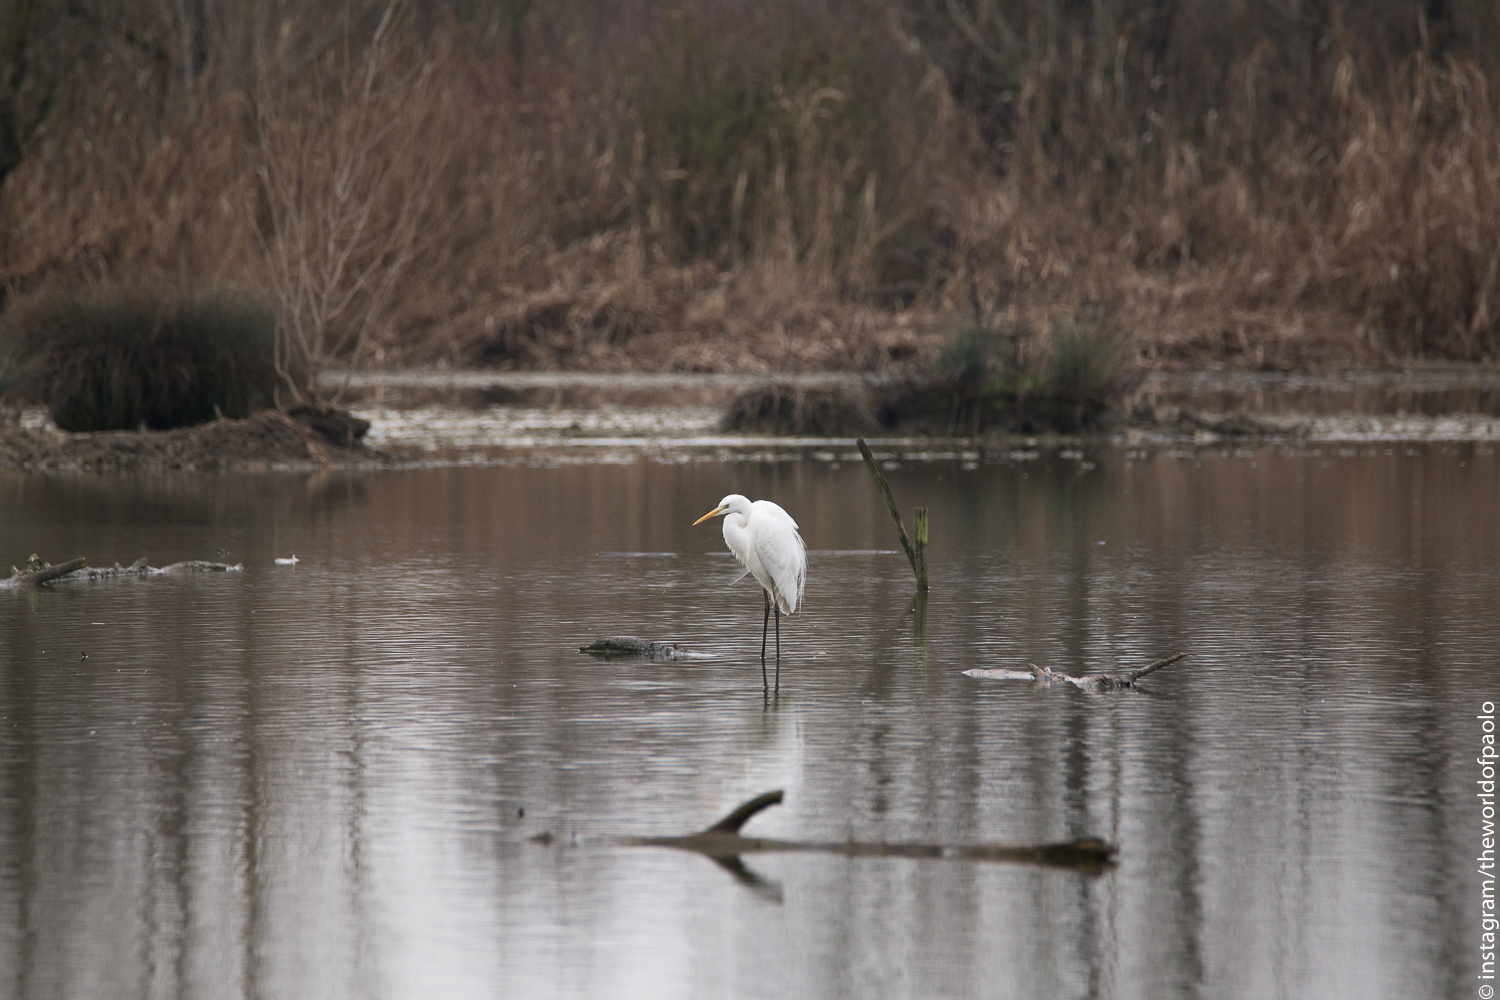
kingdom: Animalia
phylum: Chordata
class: Aves
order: Pelecaniformes
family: Ardeidae
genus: Ardea
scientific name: Ardea alba
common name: Great egret
